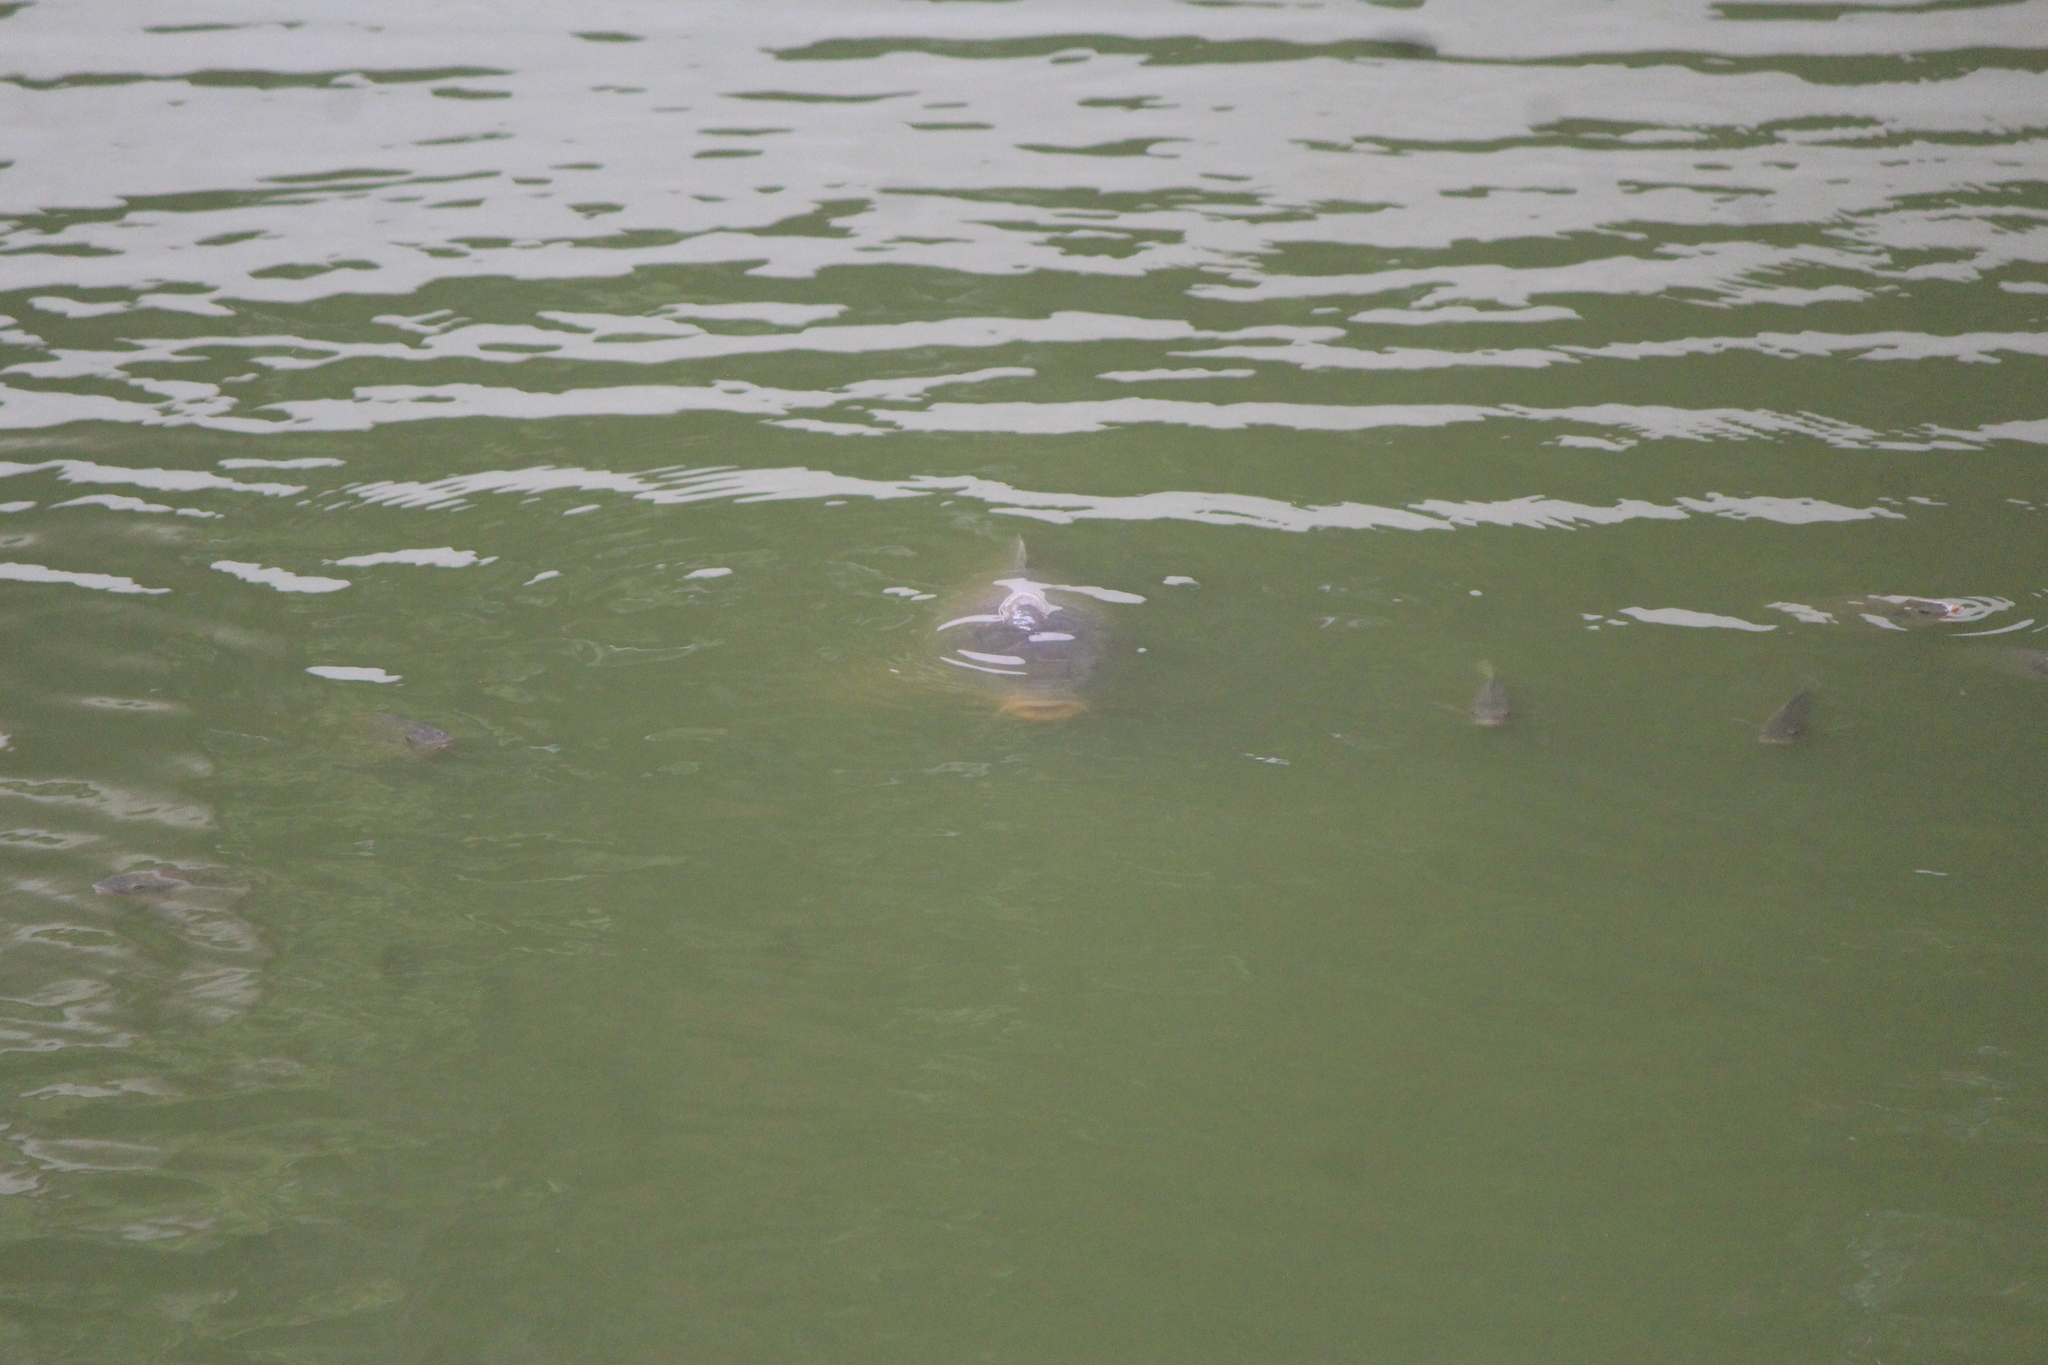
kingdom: Animalia
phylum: Chordata
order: Cypriniformes
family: Cyprinidae
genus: Cyprinus
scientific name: Cyprinus carpio
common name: Common carp
